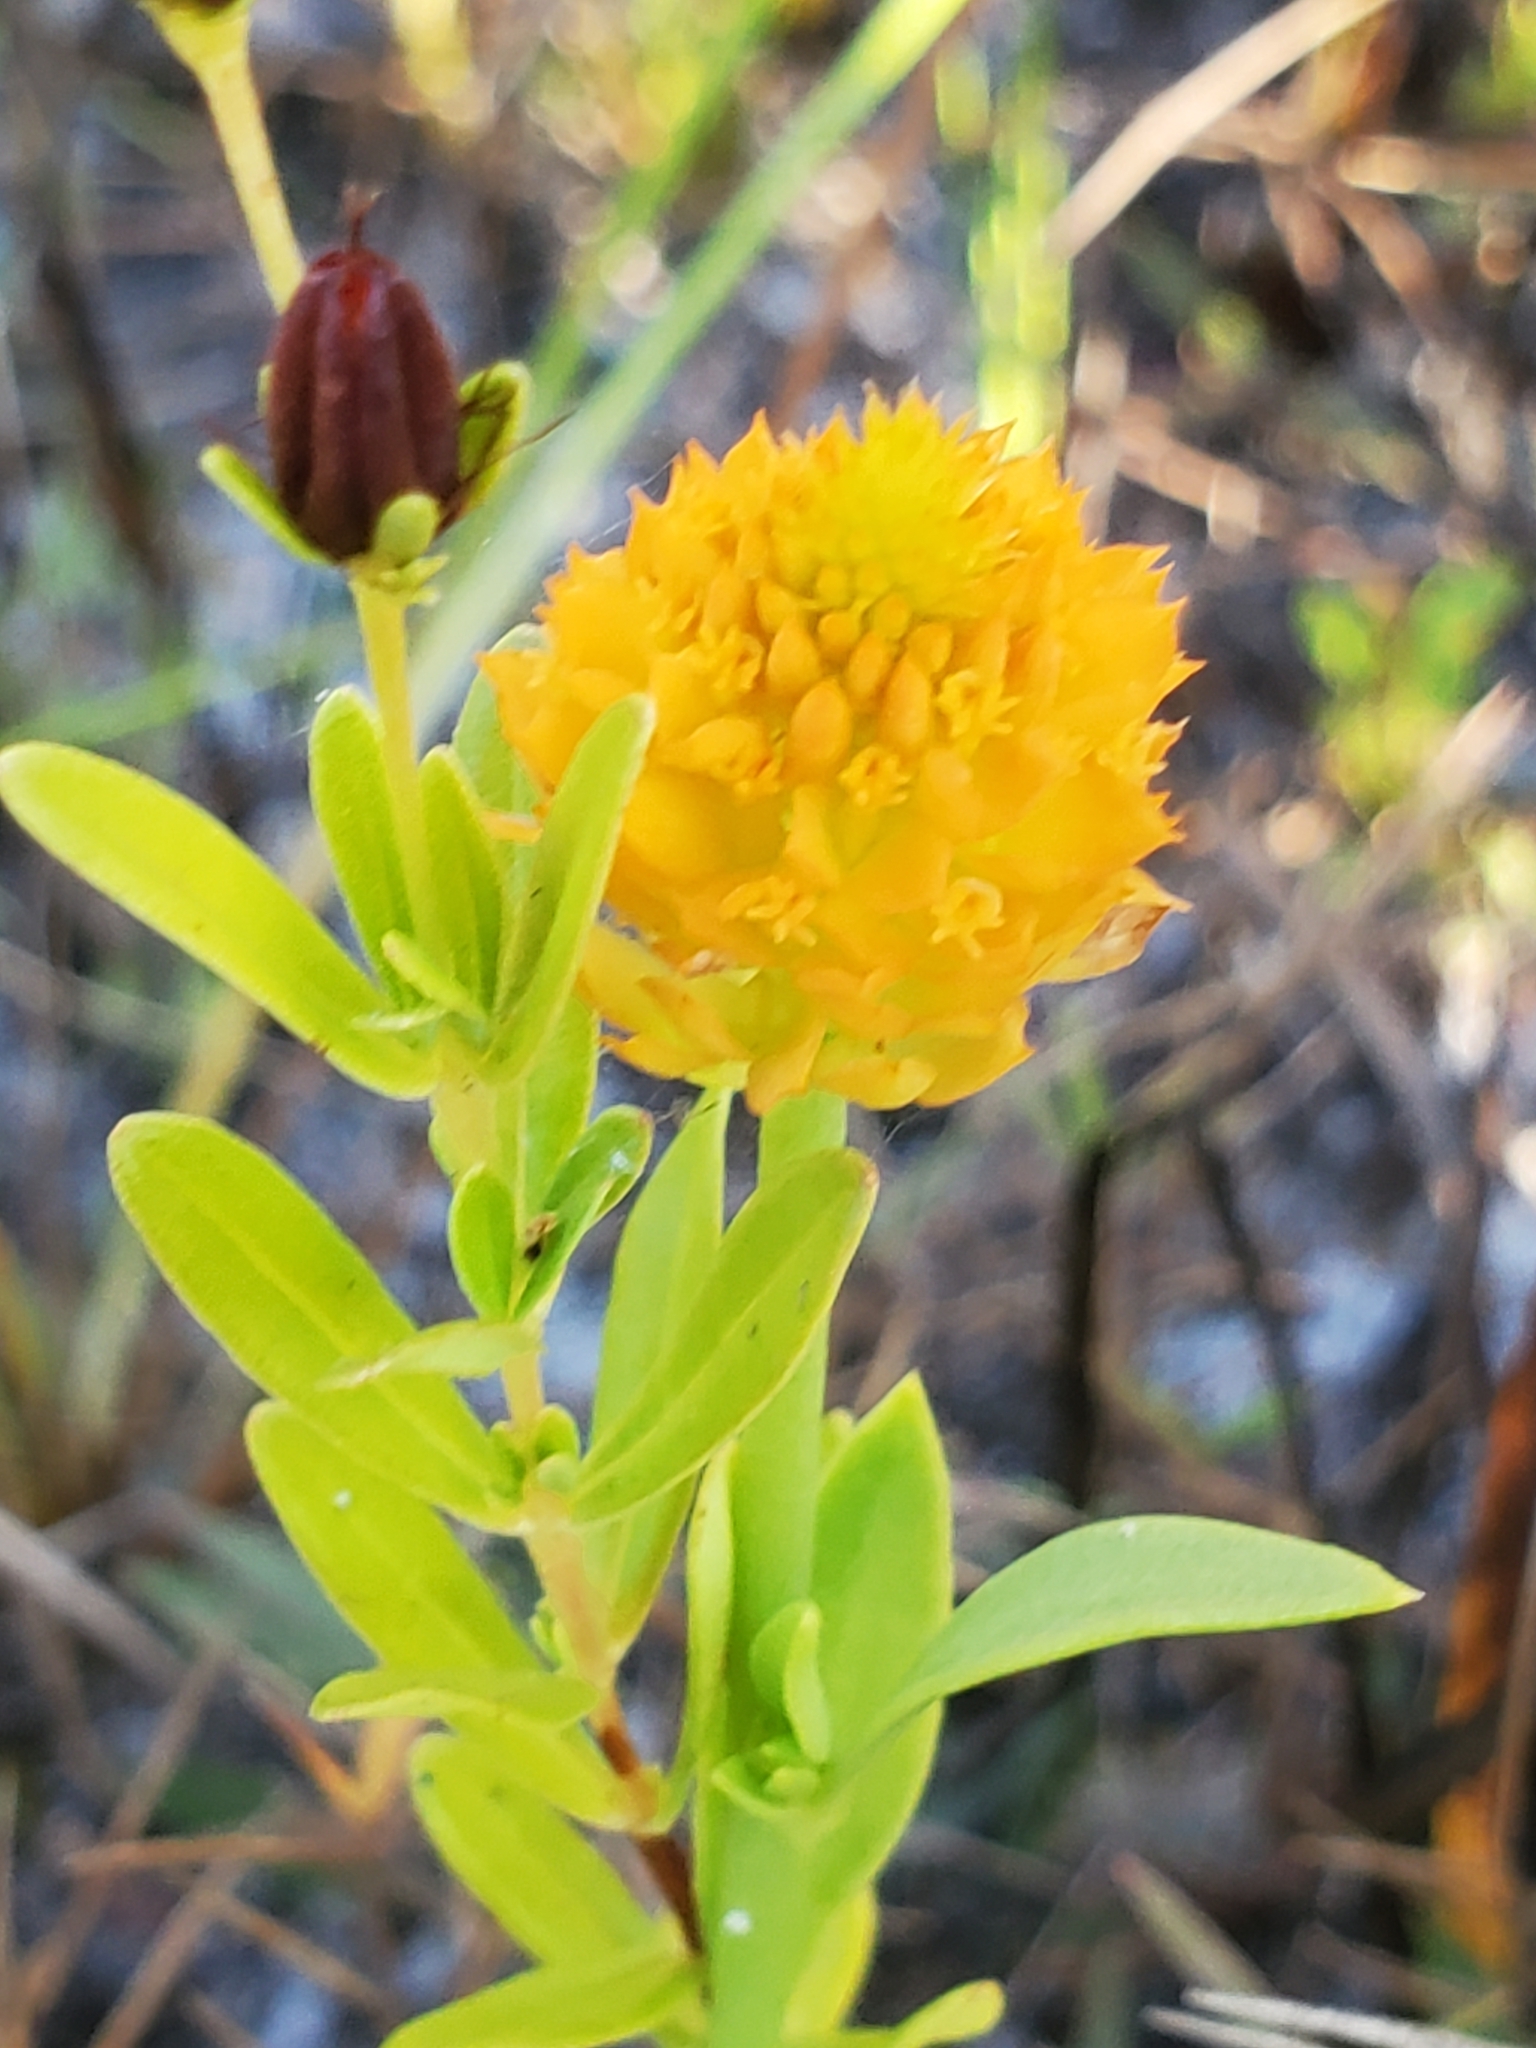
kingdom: Plantae
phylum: Tracheophyta
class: Magnoliopsida
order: Fabales
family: Polygalaceae
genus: Polygala
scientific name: Polygala lutea
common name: Orange milkwort
